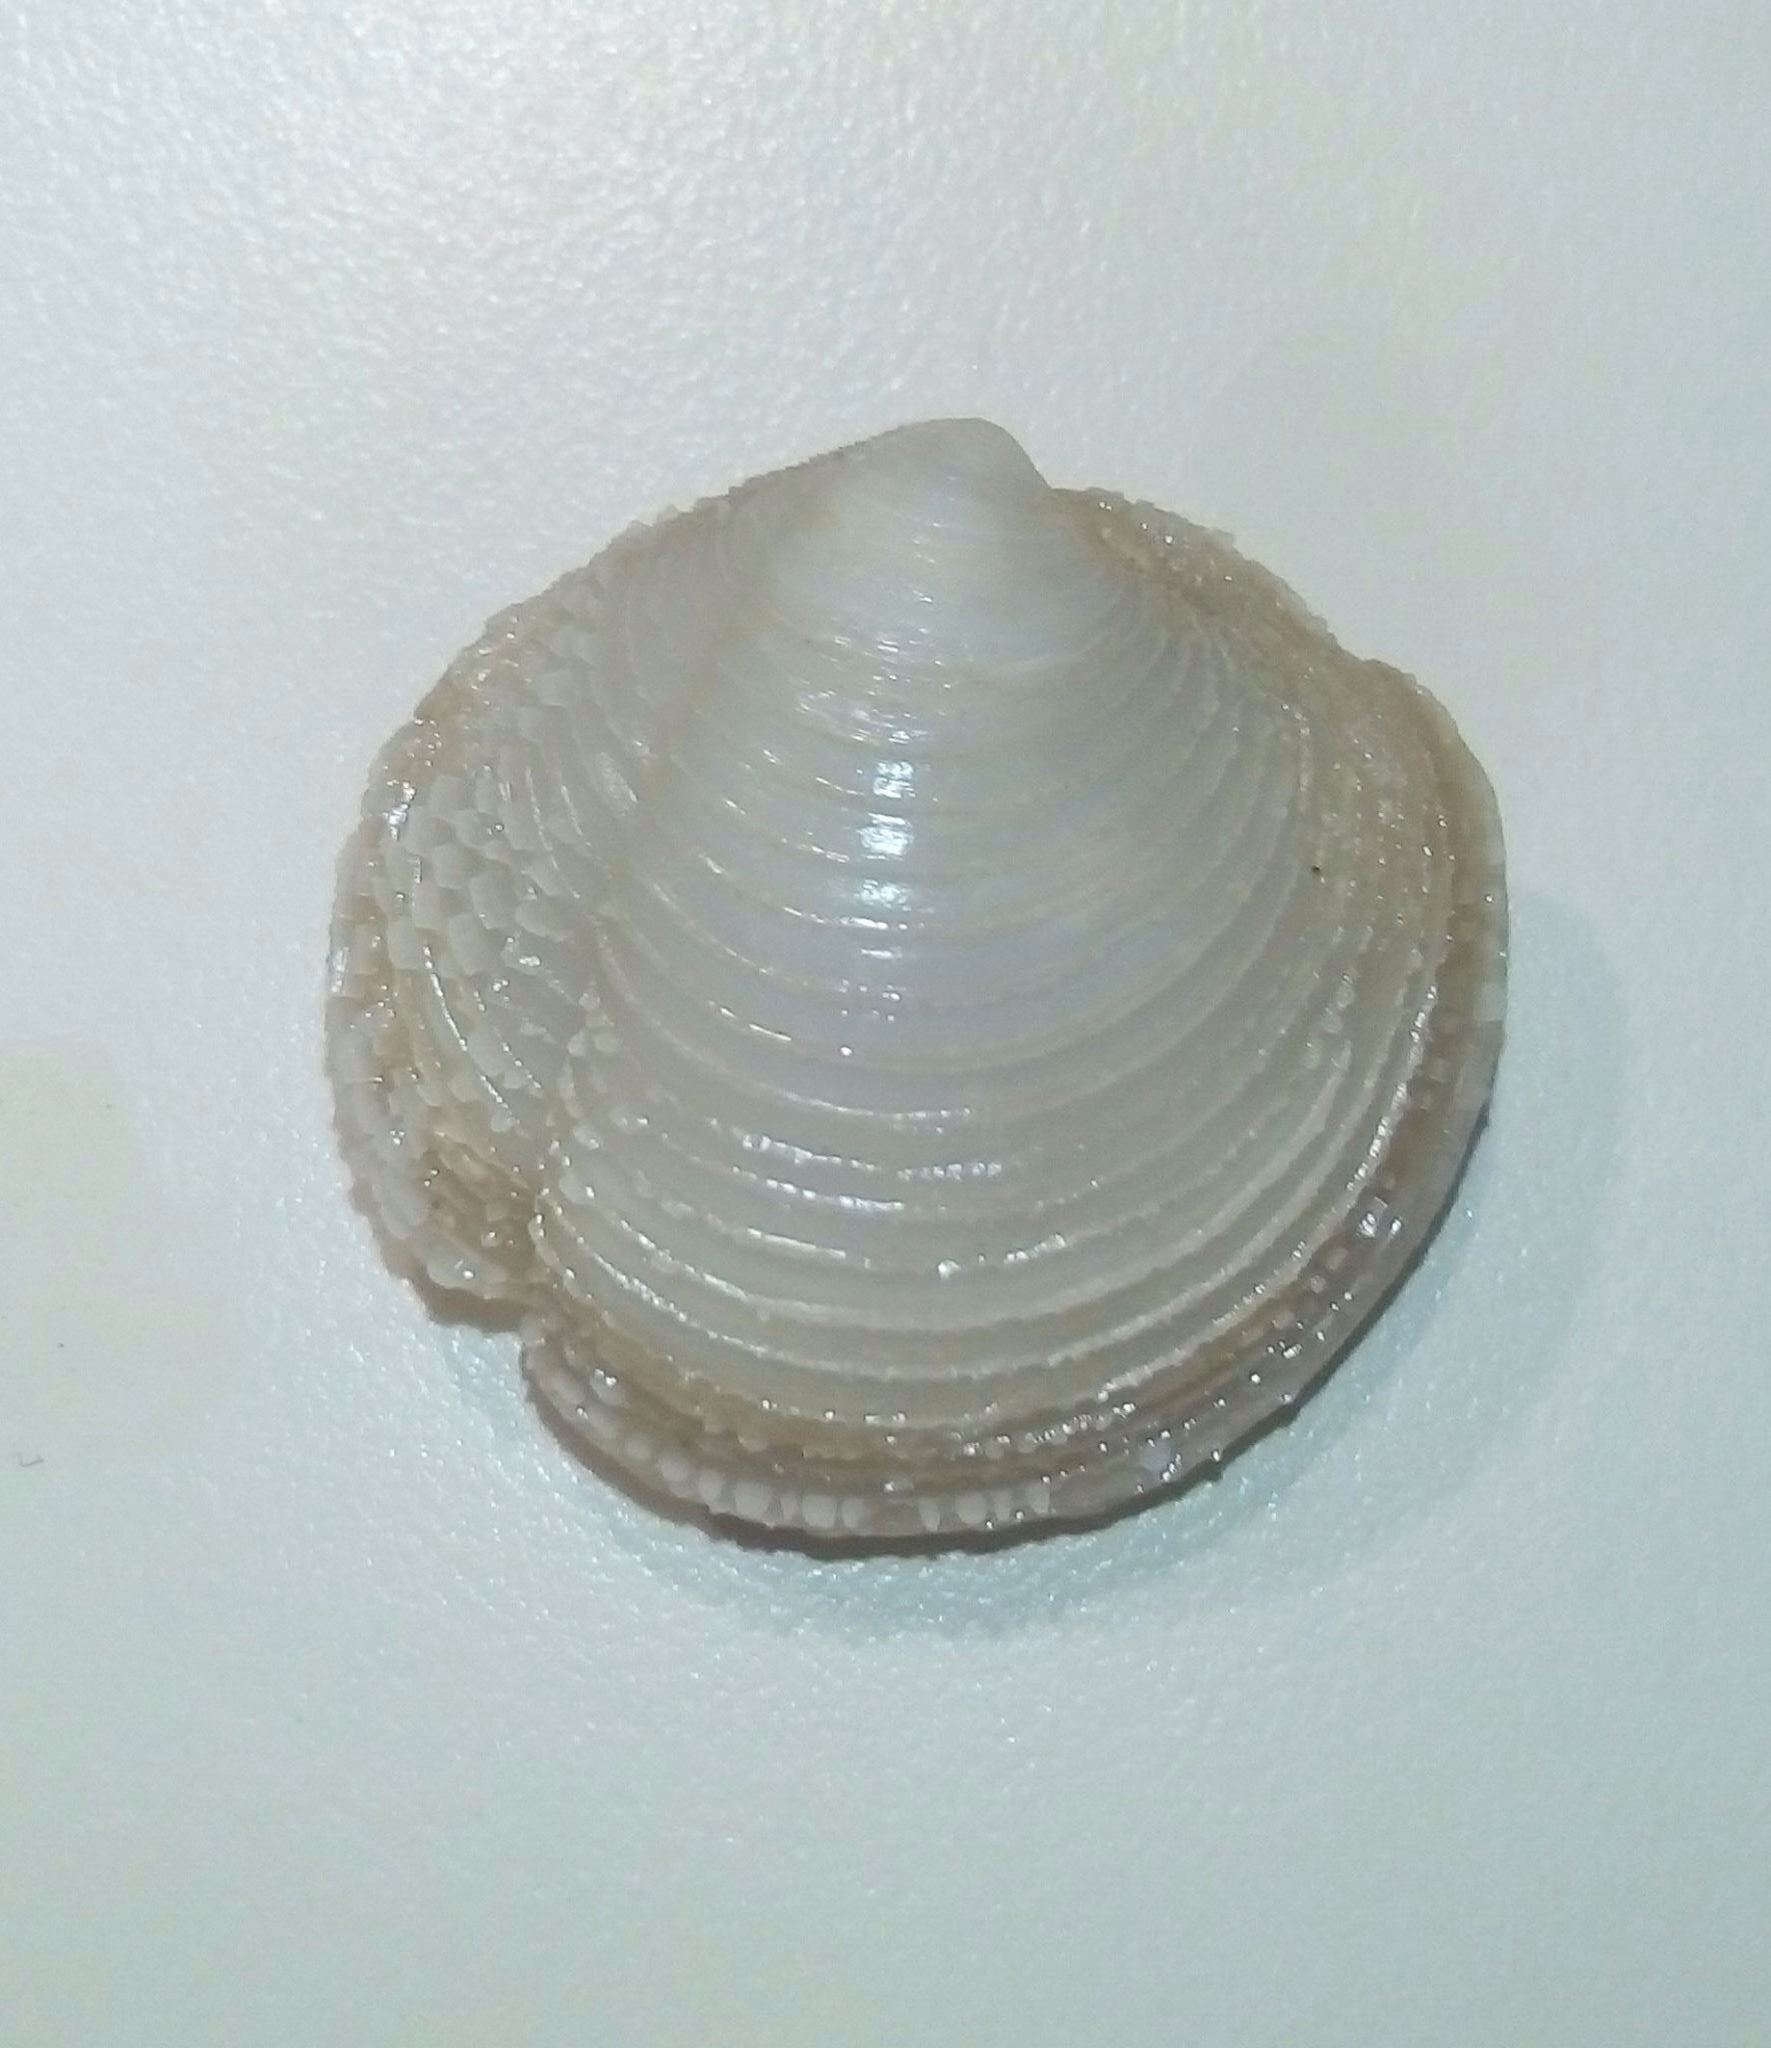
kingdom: Animalia
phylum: Mollusca
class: Bivalvia
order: Lucinida
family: Lucinidae
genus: Lucina
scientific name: Lucina roquesana
